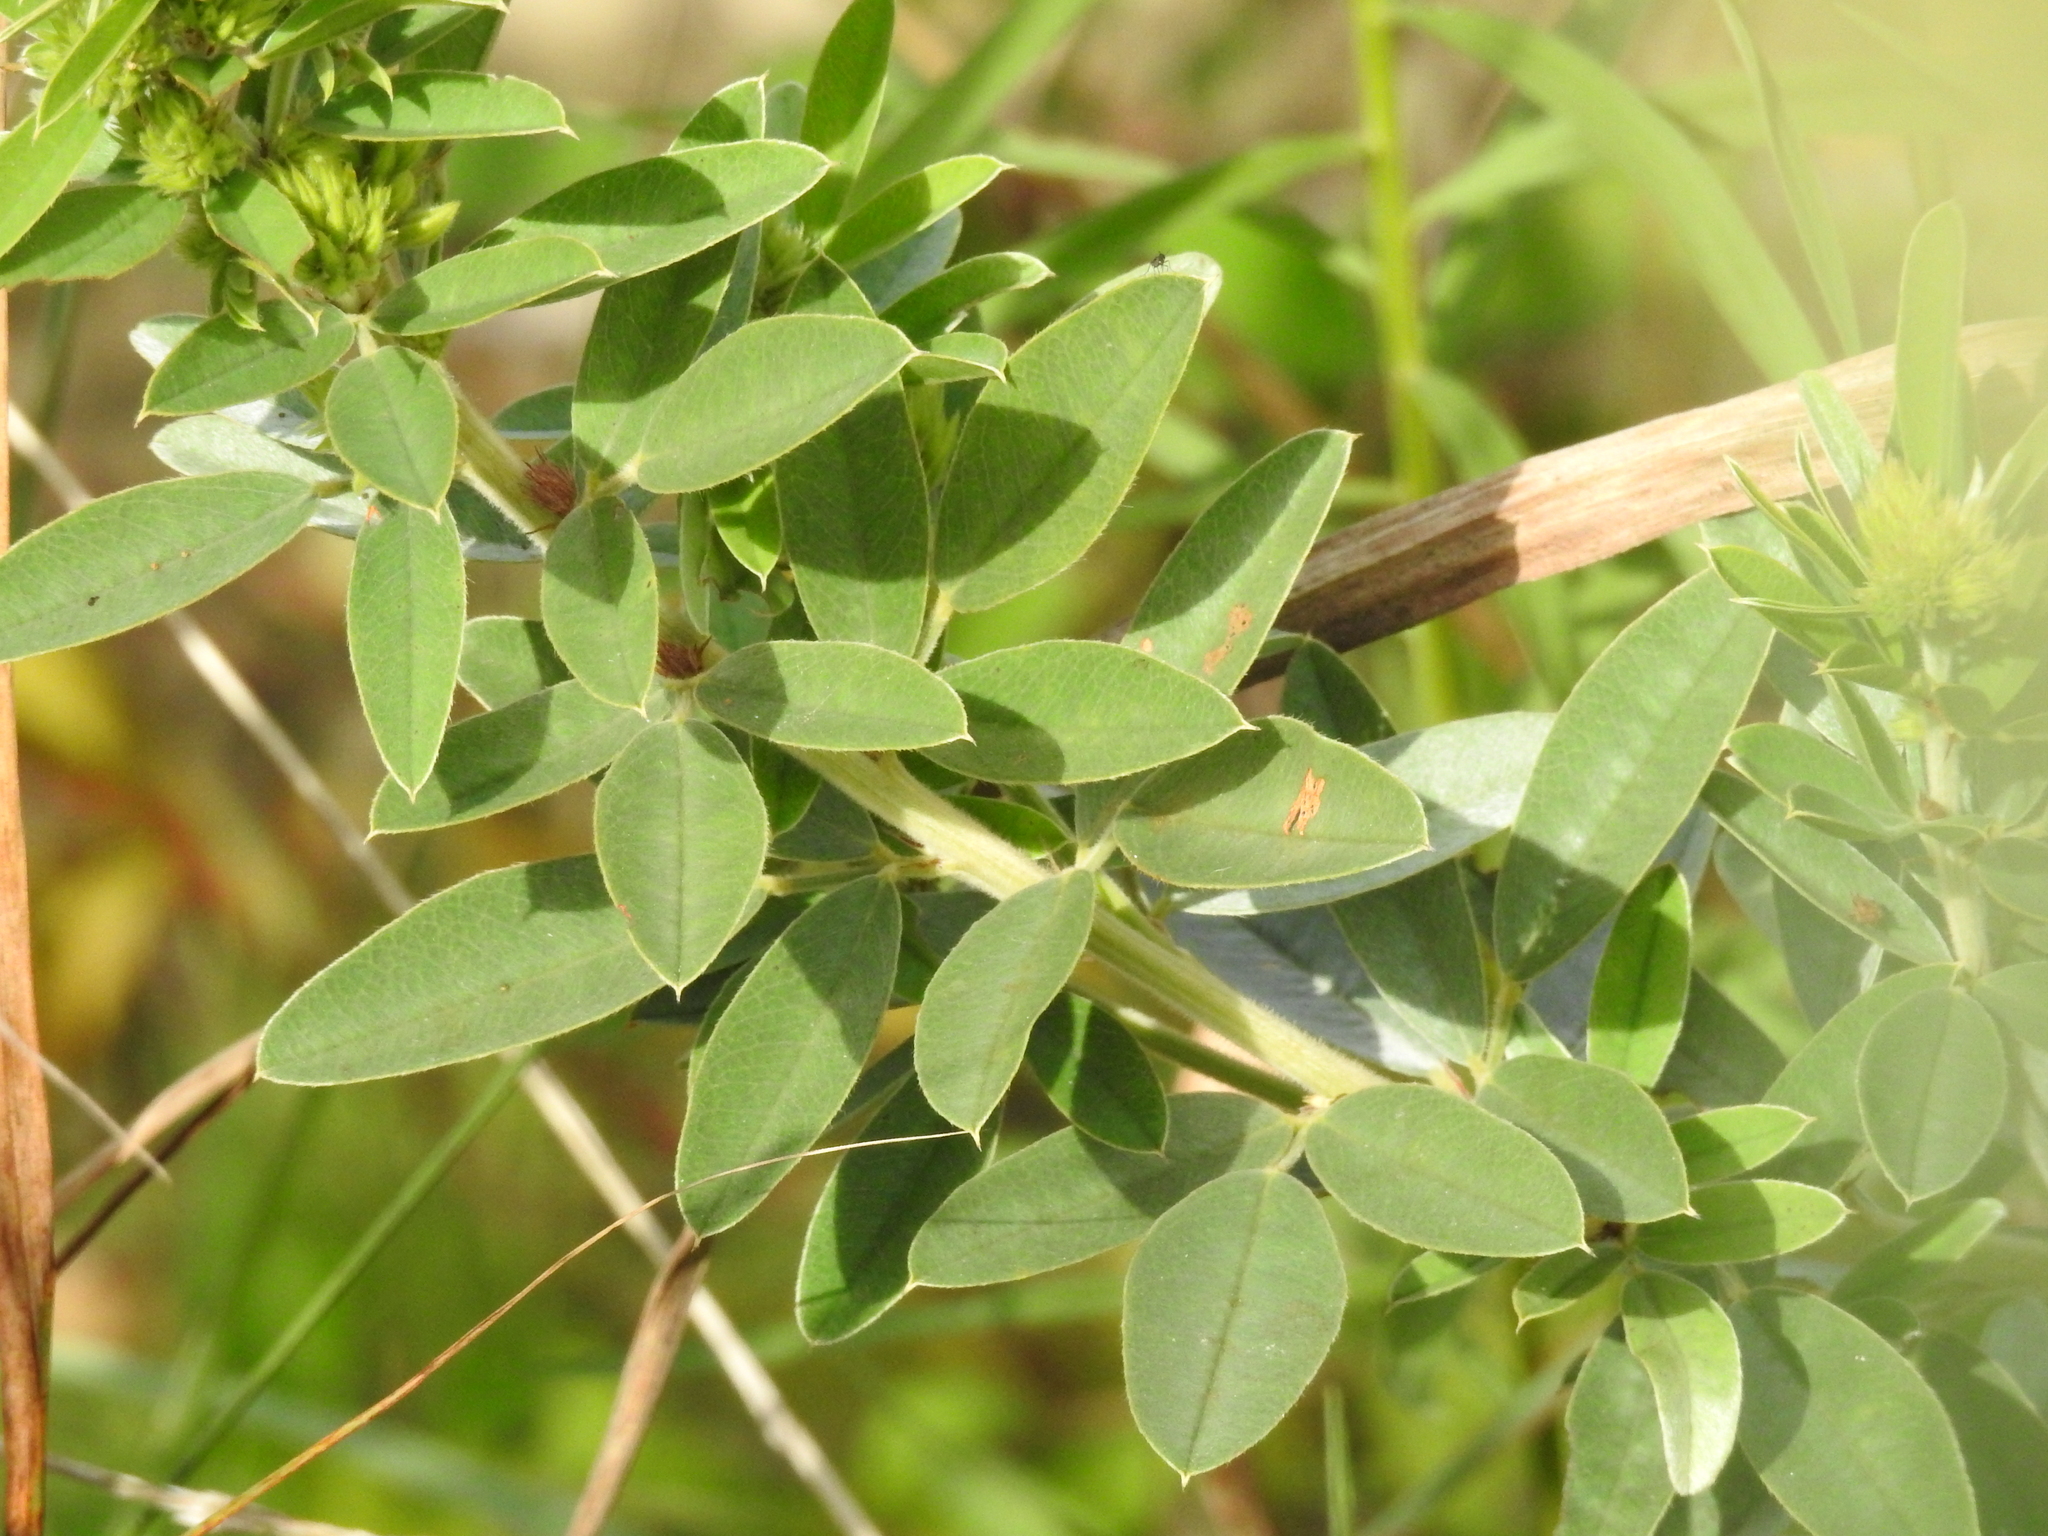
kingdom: Plantae
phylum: Tracheophyta
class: Magnoliopsida
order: Fabales
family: Fabaceae
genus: Lespedeza
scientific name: Lespedeza capitata
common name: Dusty clover
